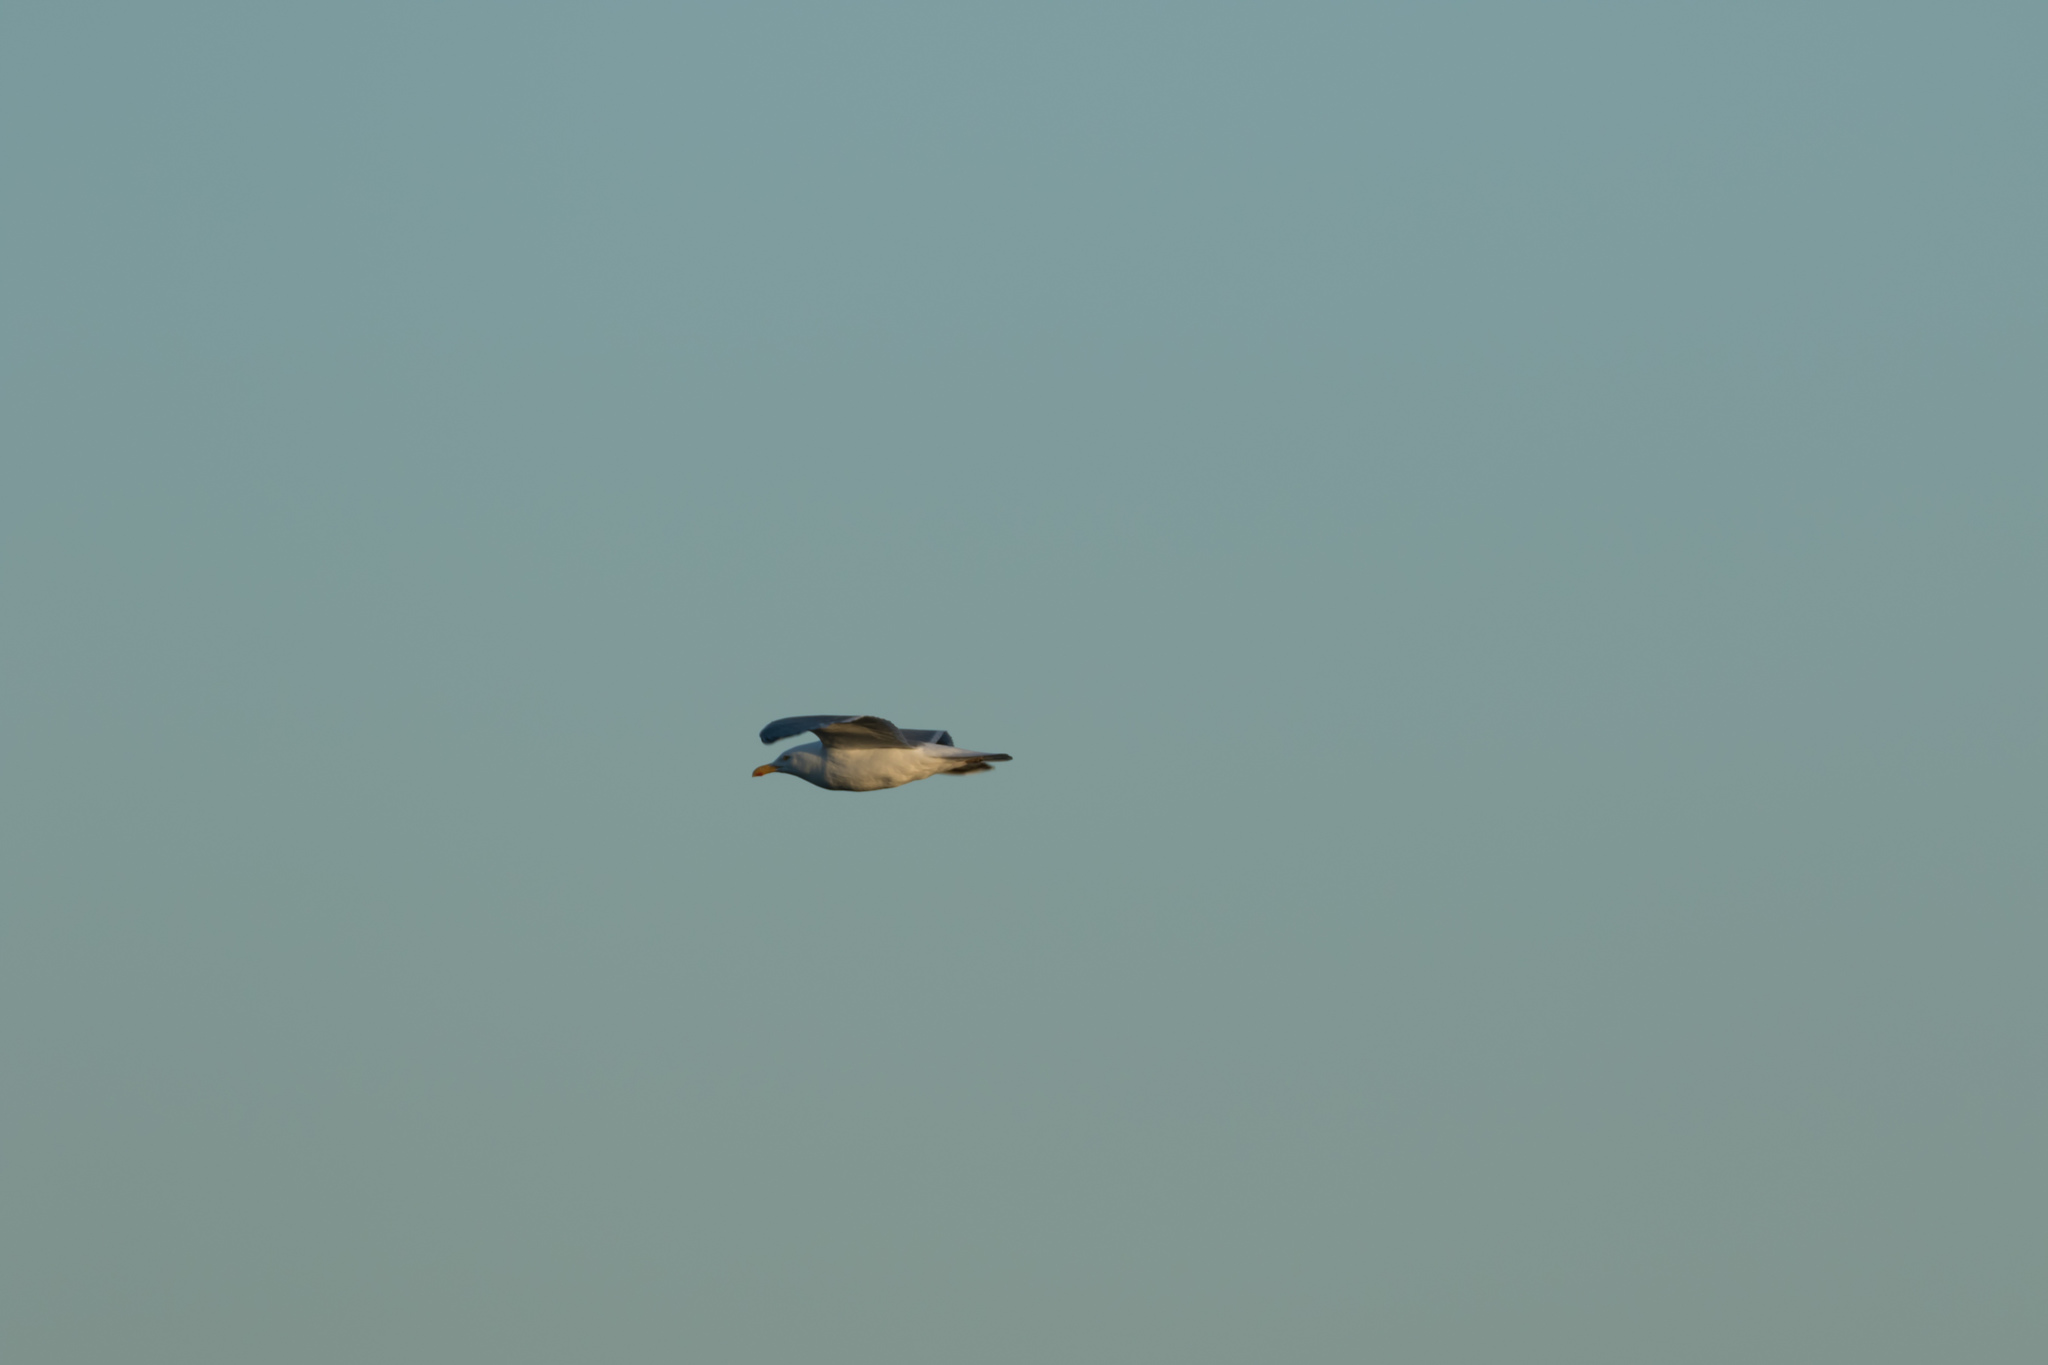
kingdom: Animalia
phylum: Chordata
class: Aves
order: Charadriiformes
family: Laridae
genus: Larus
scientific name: Larus argentatus
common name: Herring gull
